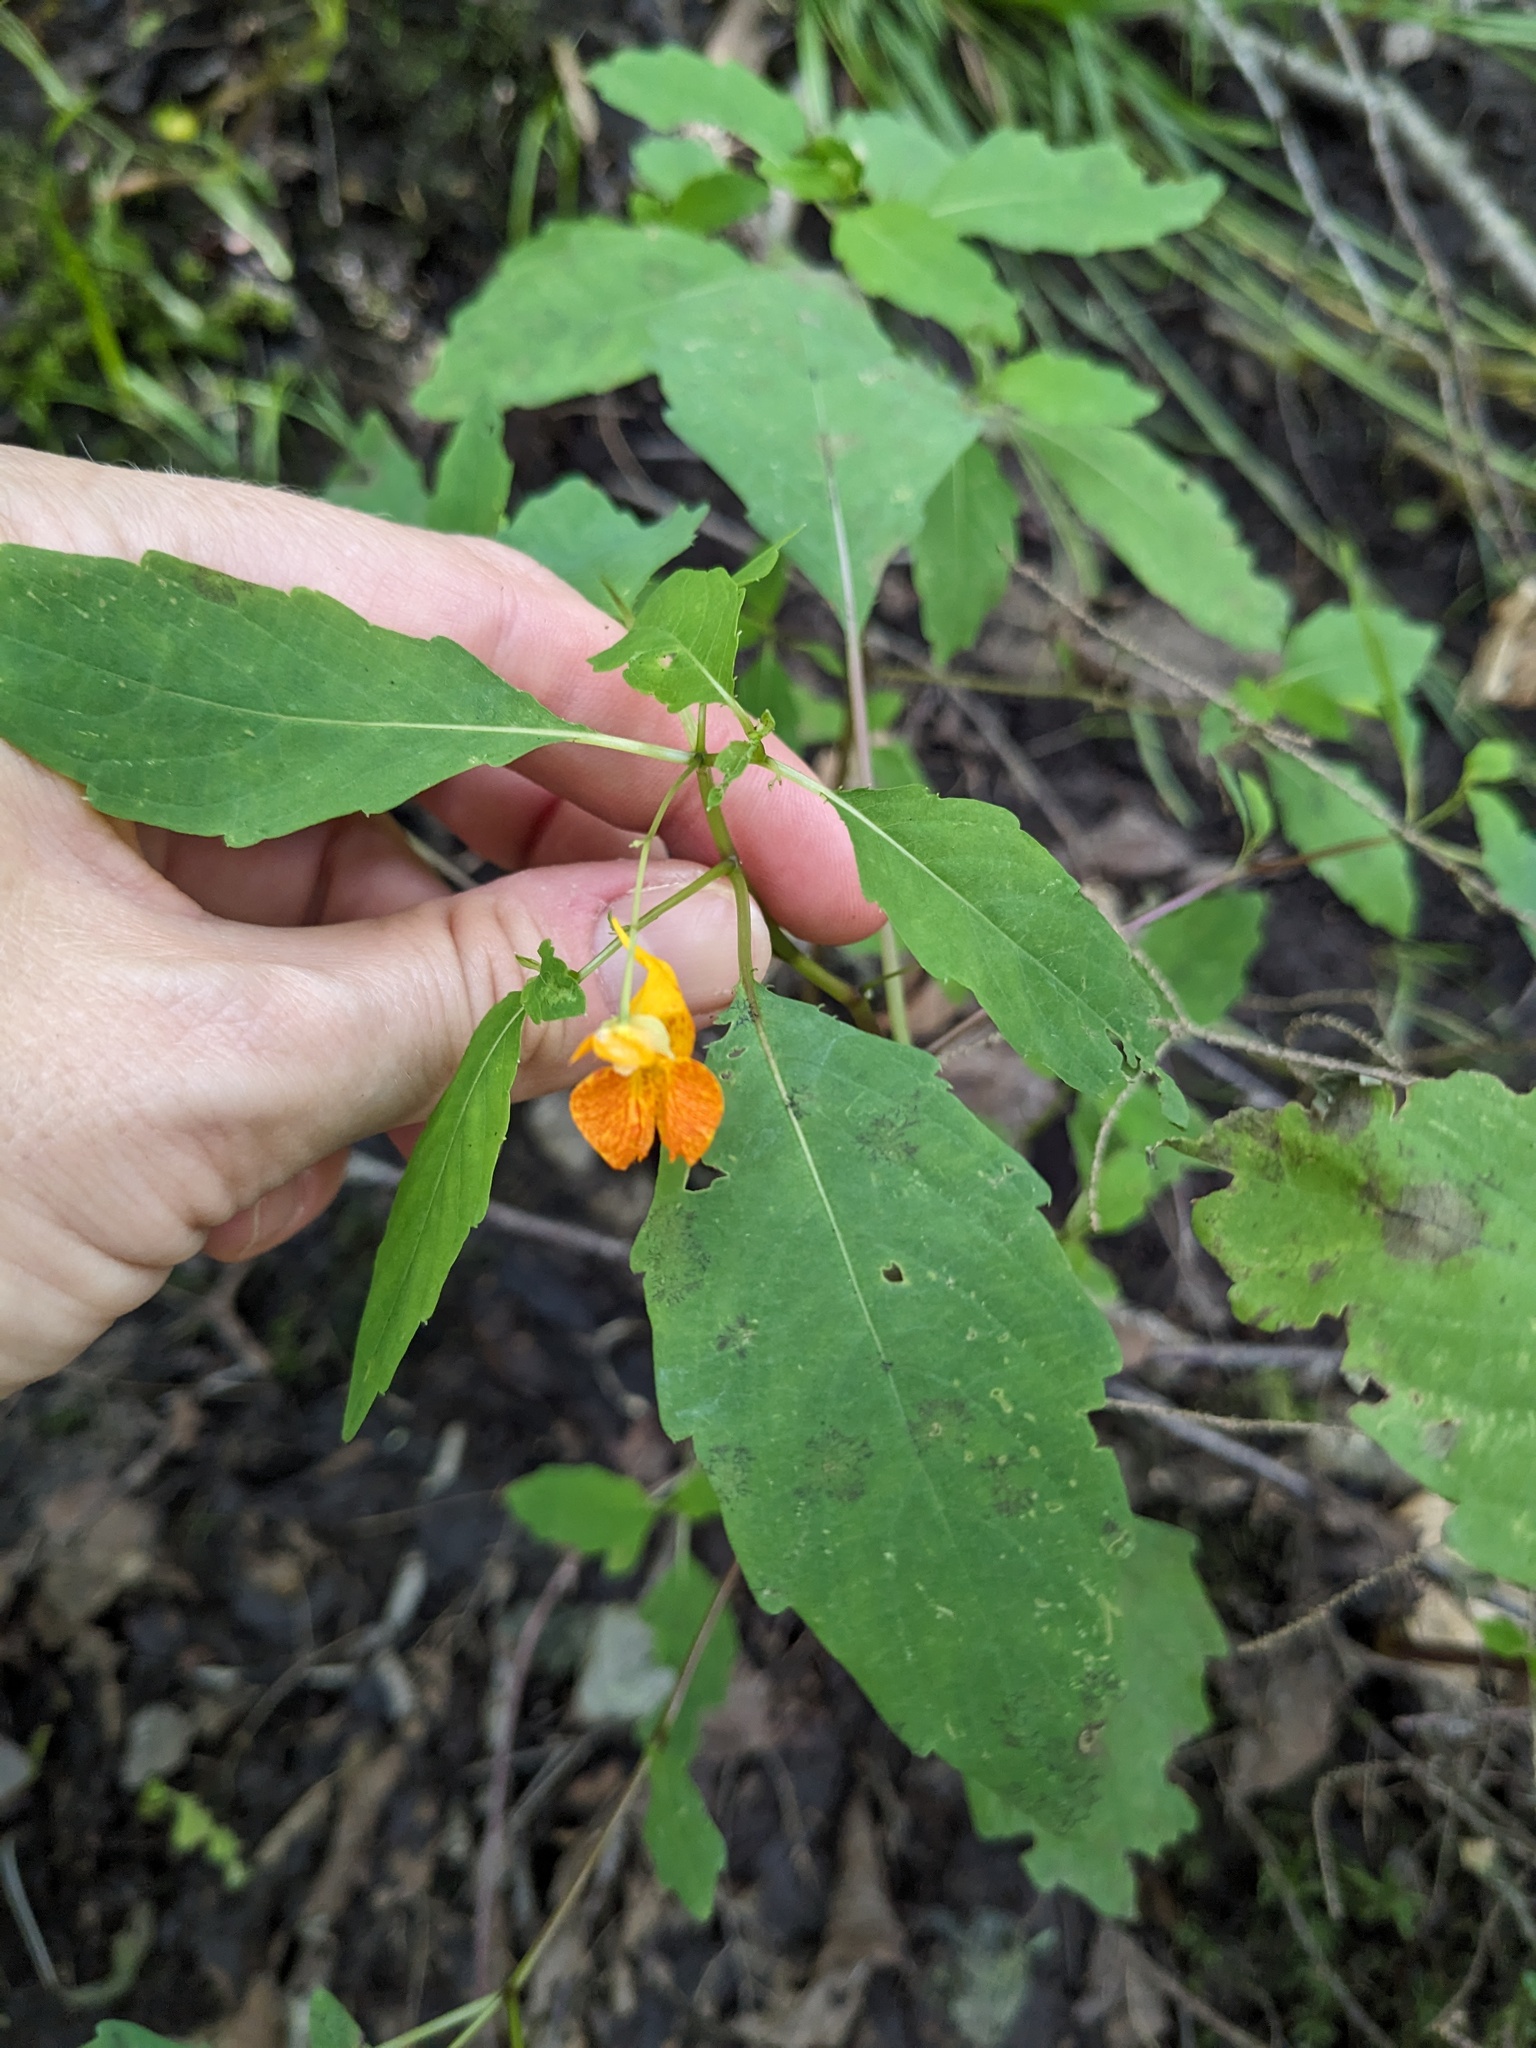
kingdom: Plantae
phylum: Tracheophyta
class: Magnoliopsida
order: Ericales
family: Balsaminaceae
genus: Impatiens
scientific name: Impatiens capensis
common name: Orange balsam
